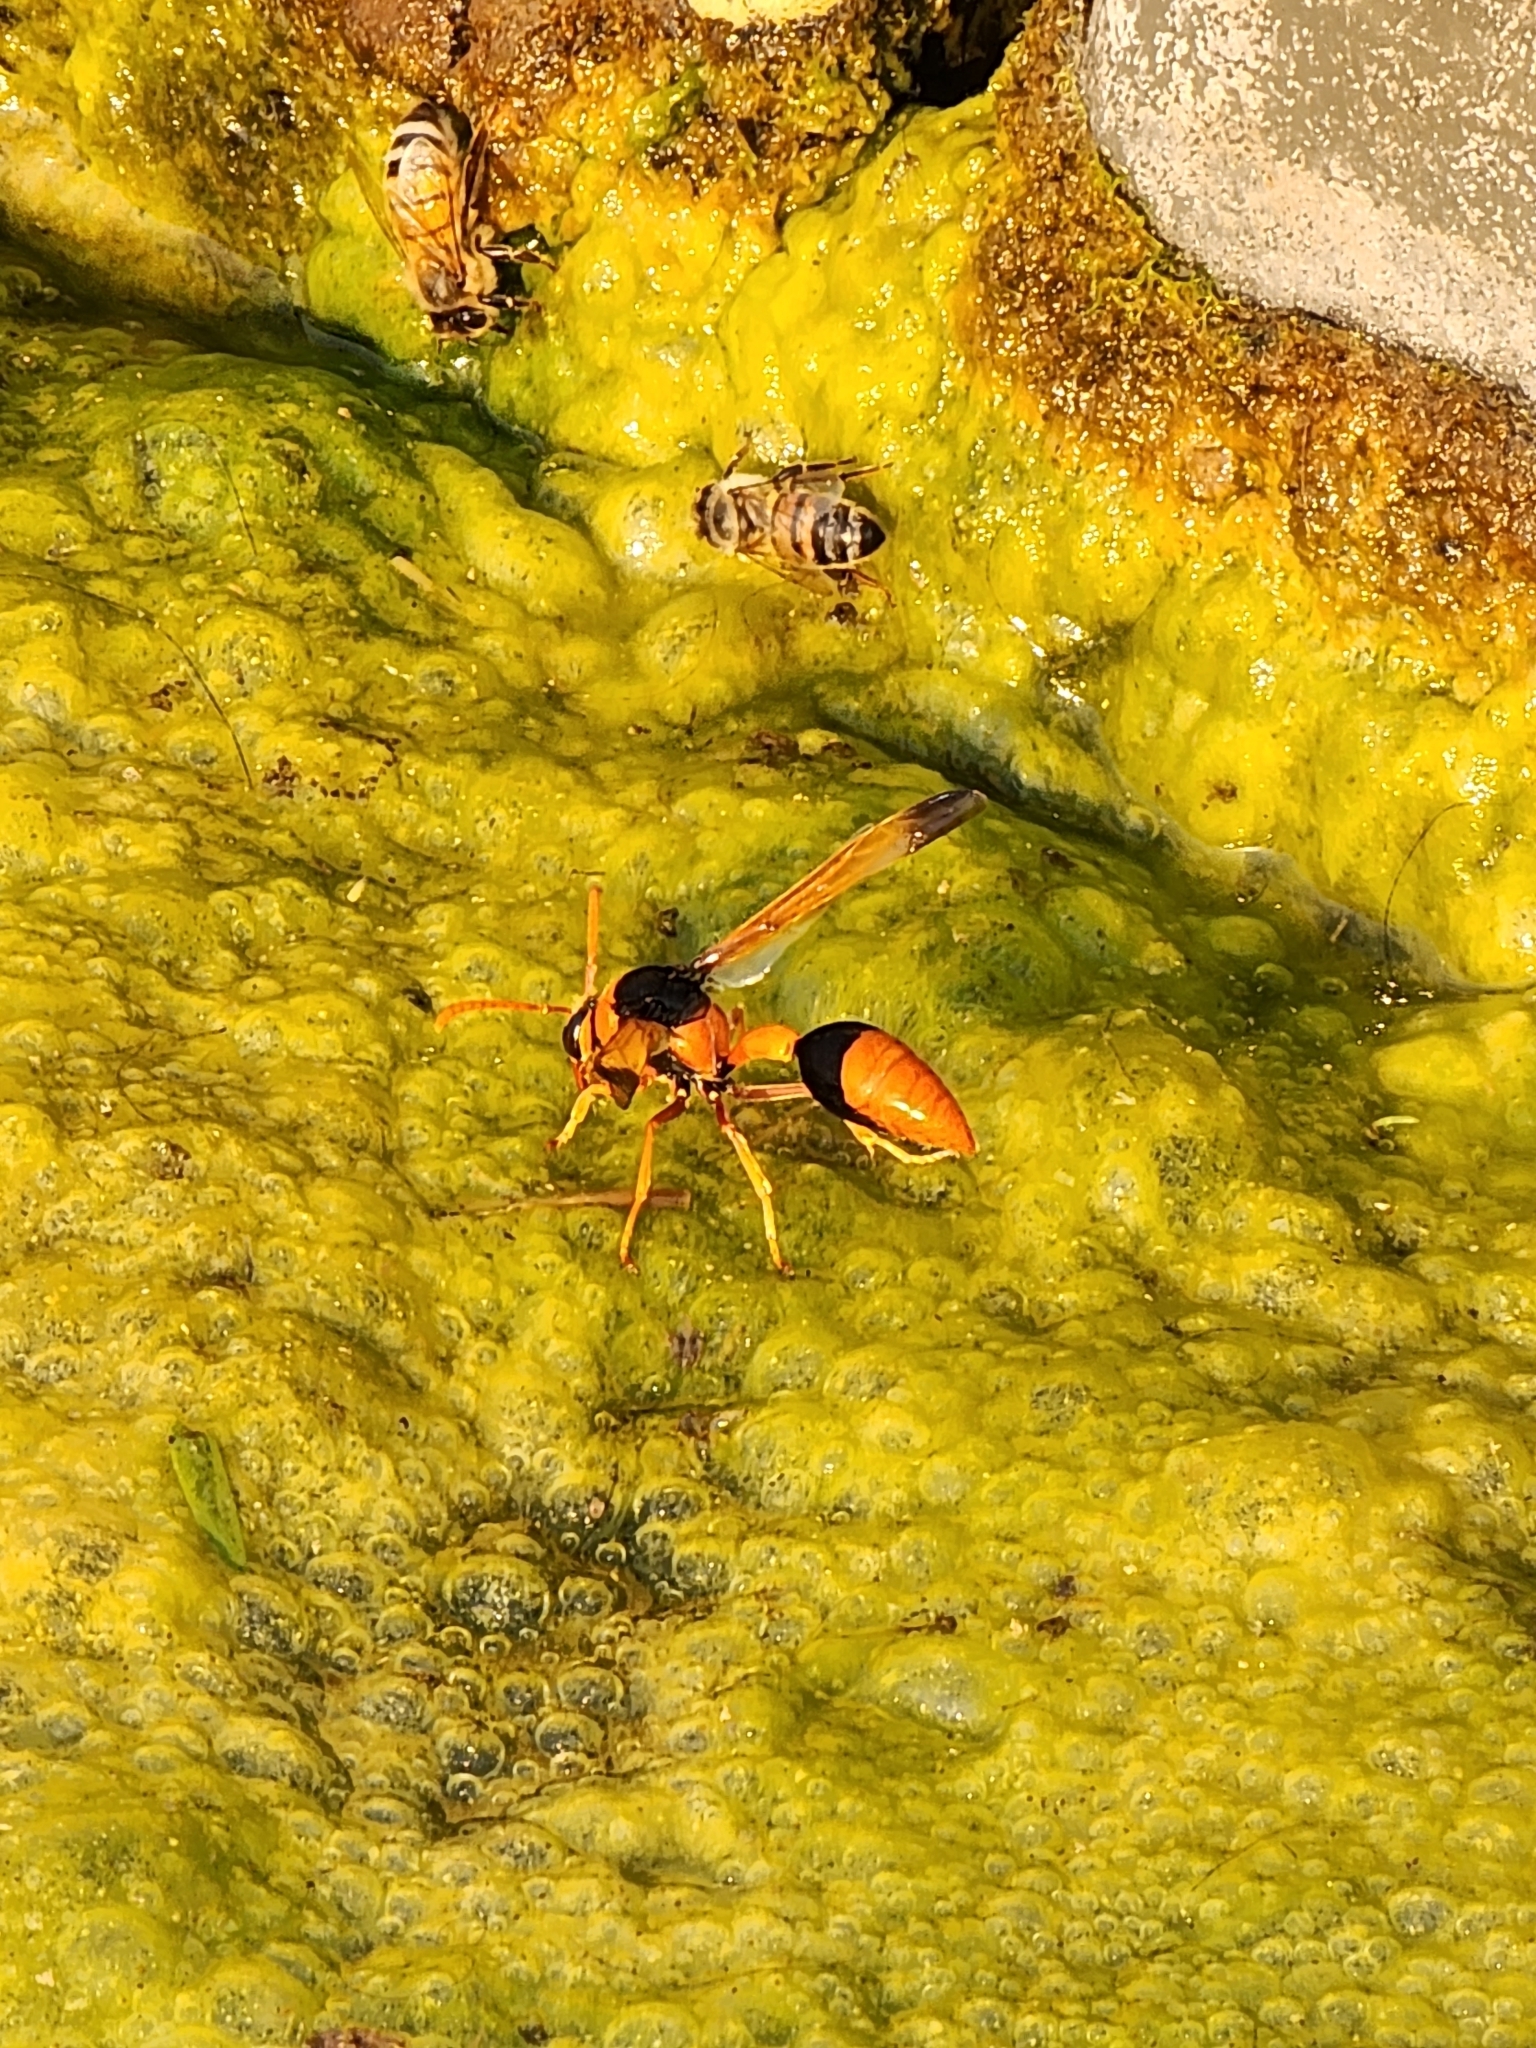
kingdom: Animalia
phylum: Arthropoda
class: Insecta
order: Hymenoptera
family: Eumenidae
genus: Delta
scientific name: Delta latreillei
